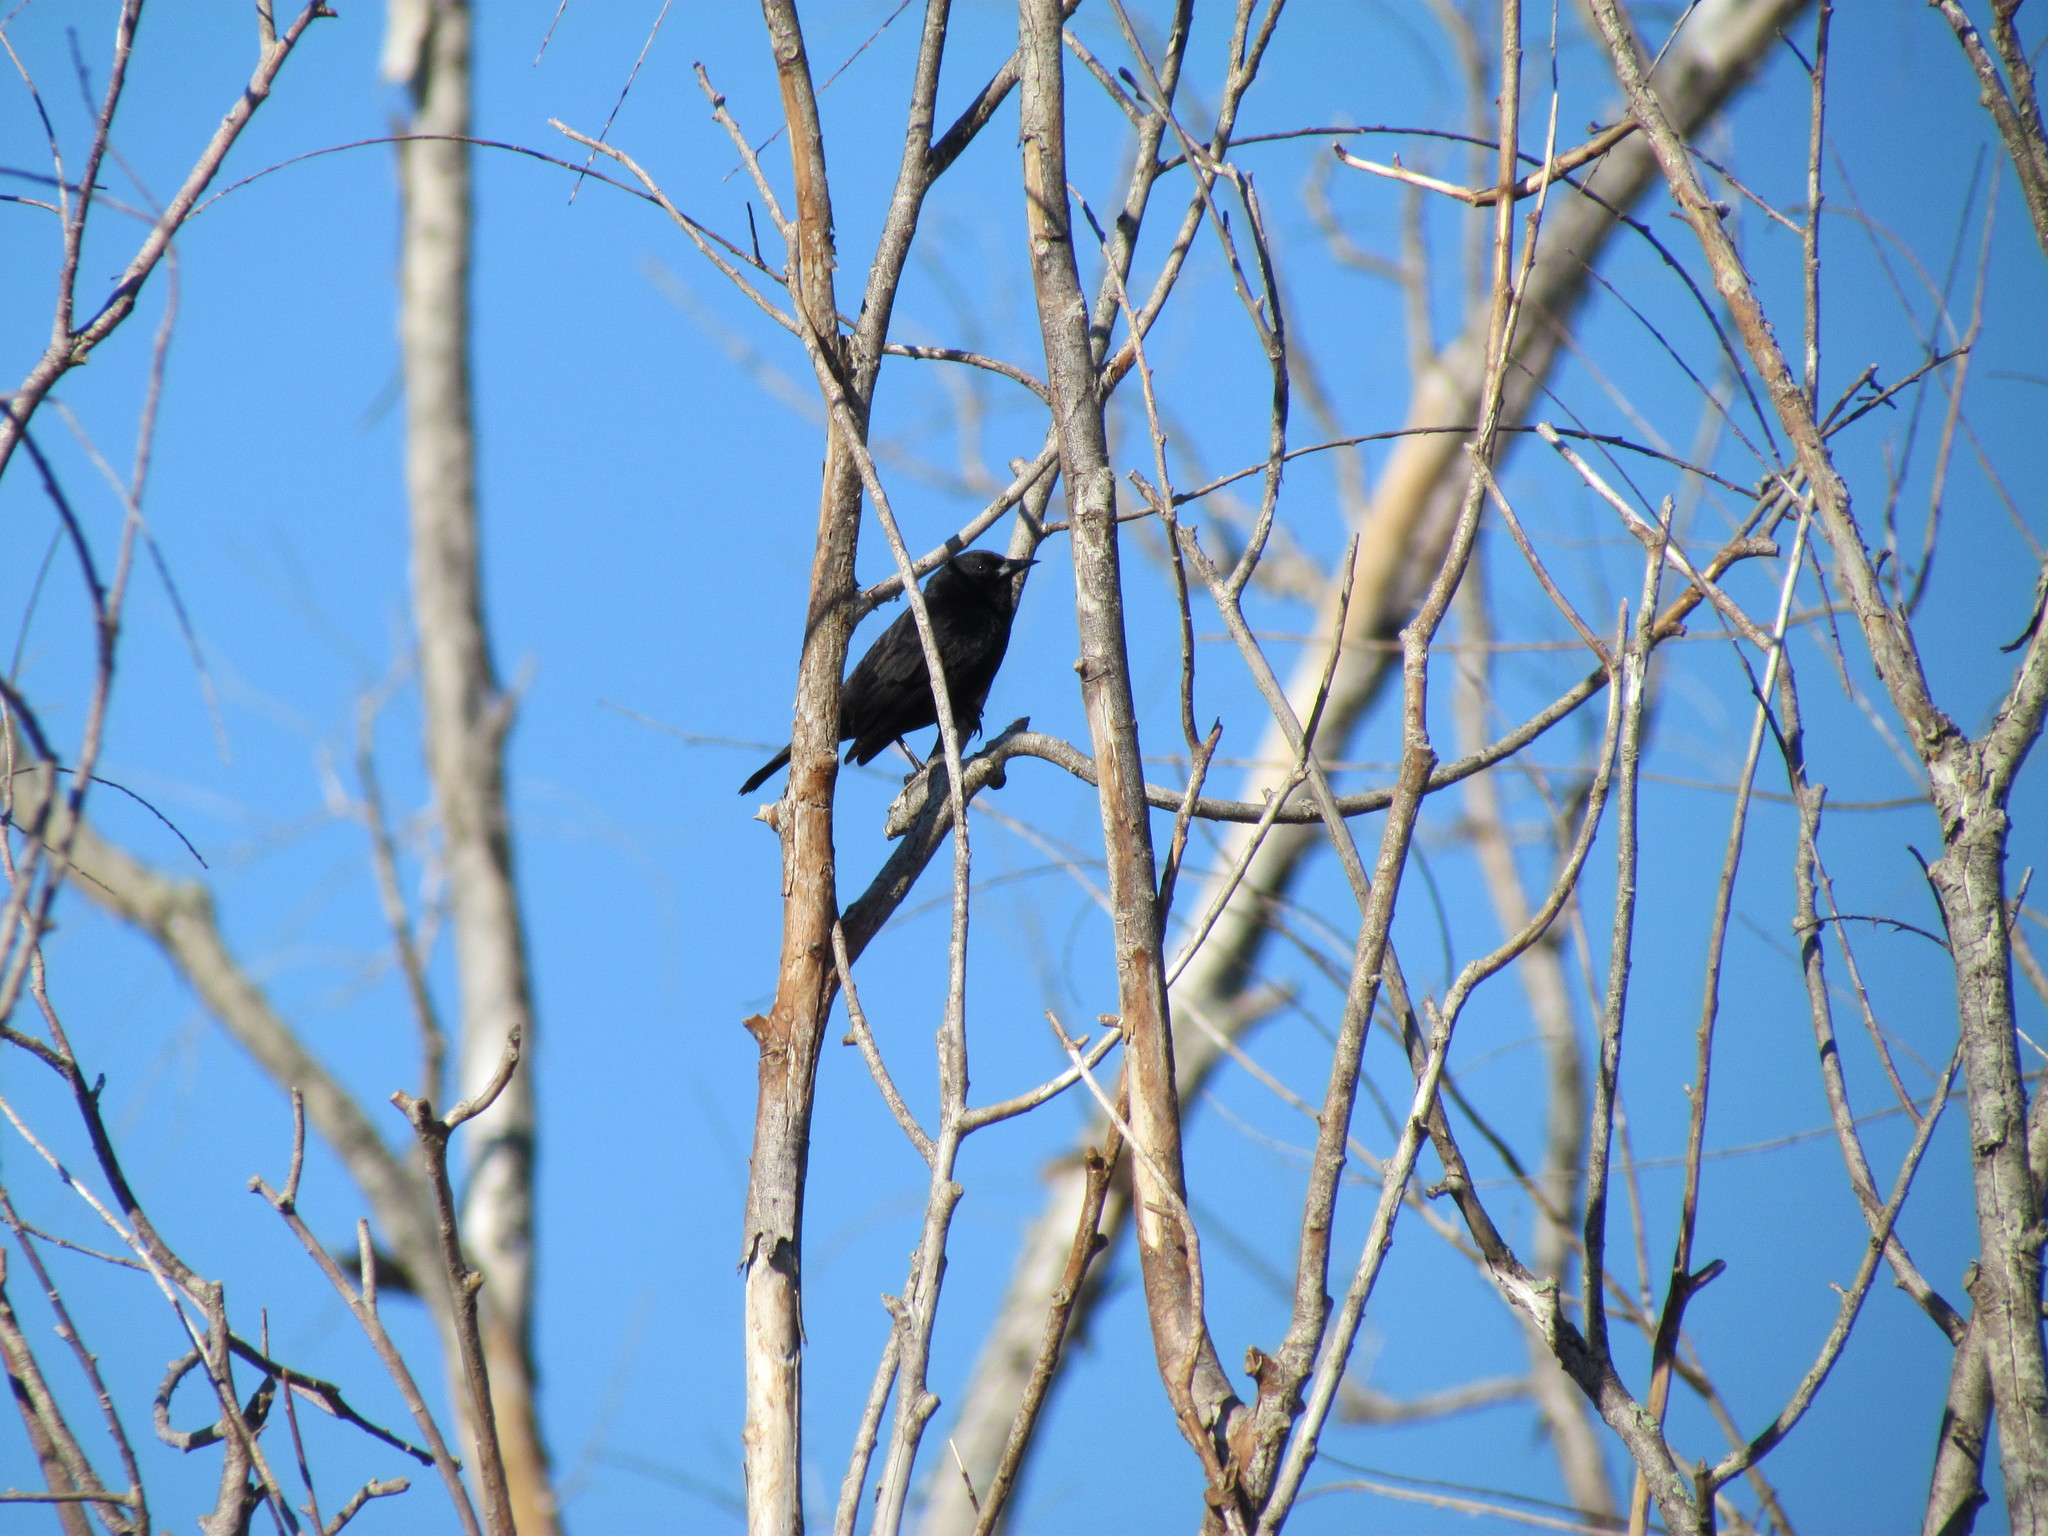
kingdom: Animalia
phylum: Chordata
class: Aves
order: Passeriformes
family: Icteridae
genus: Agelasticus
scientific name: Agelasticus thilius
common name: Yellow-winged blackbird
